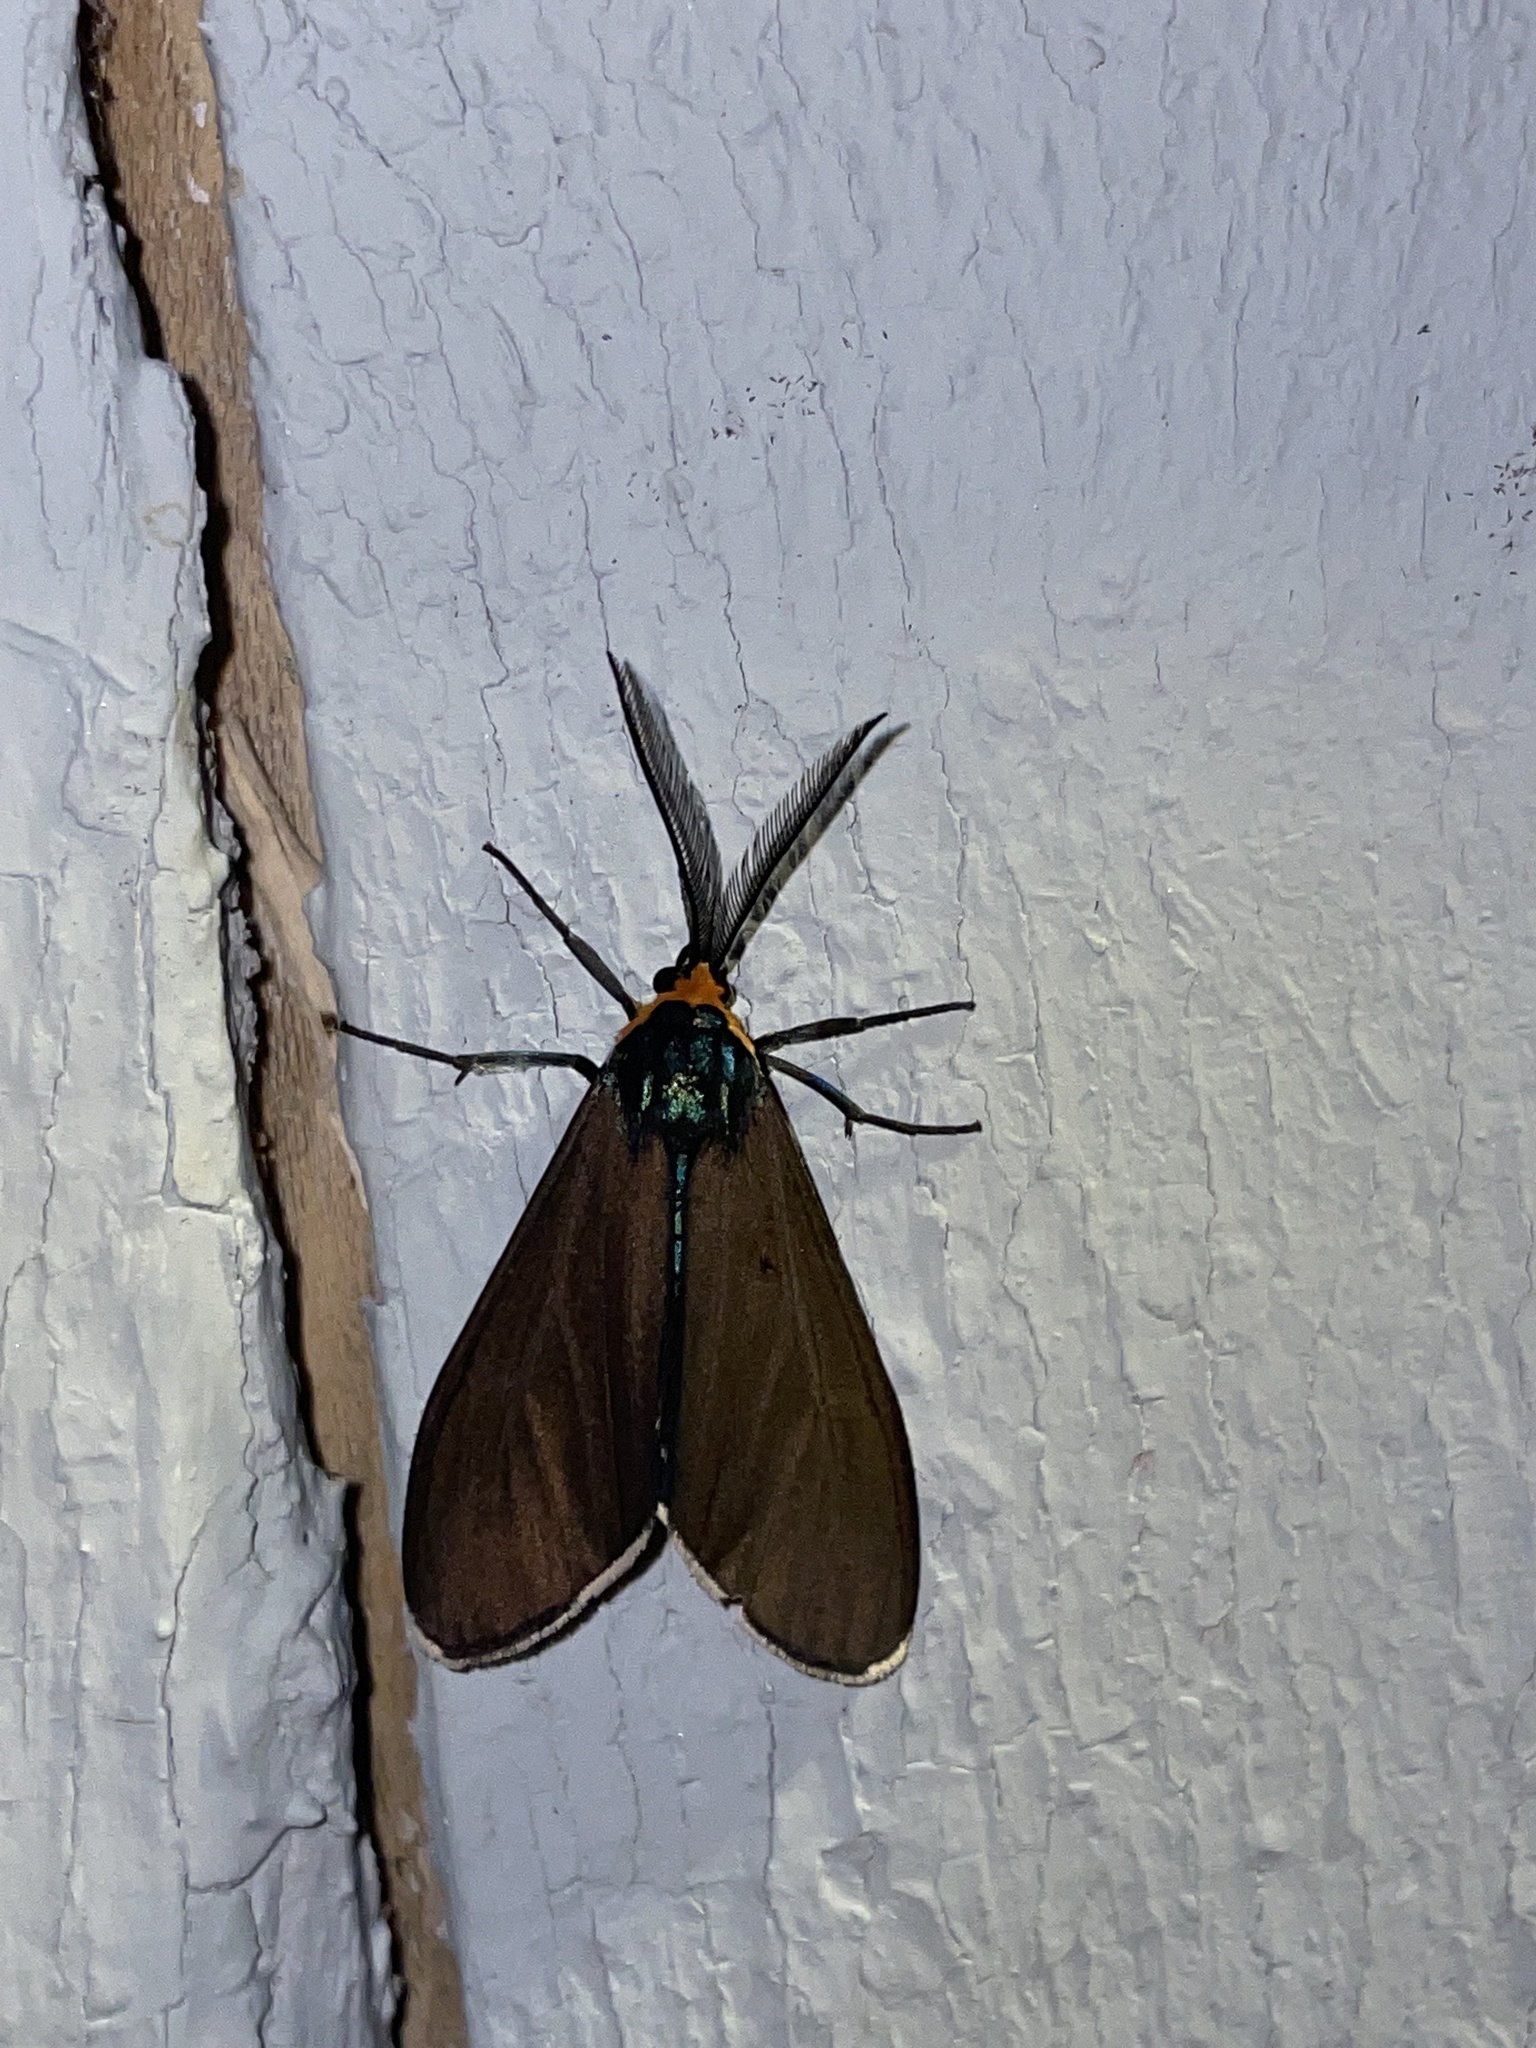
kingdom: Animalia
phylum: Arthropoda
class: Insecta
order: Lepidoptera
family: Erebidae
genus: Ctenucha
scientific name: Ctenucha virginica
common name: Virginia ctenucha moth
